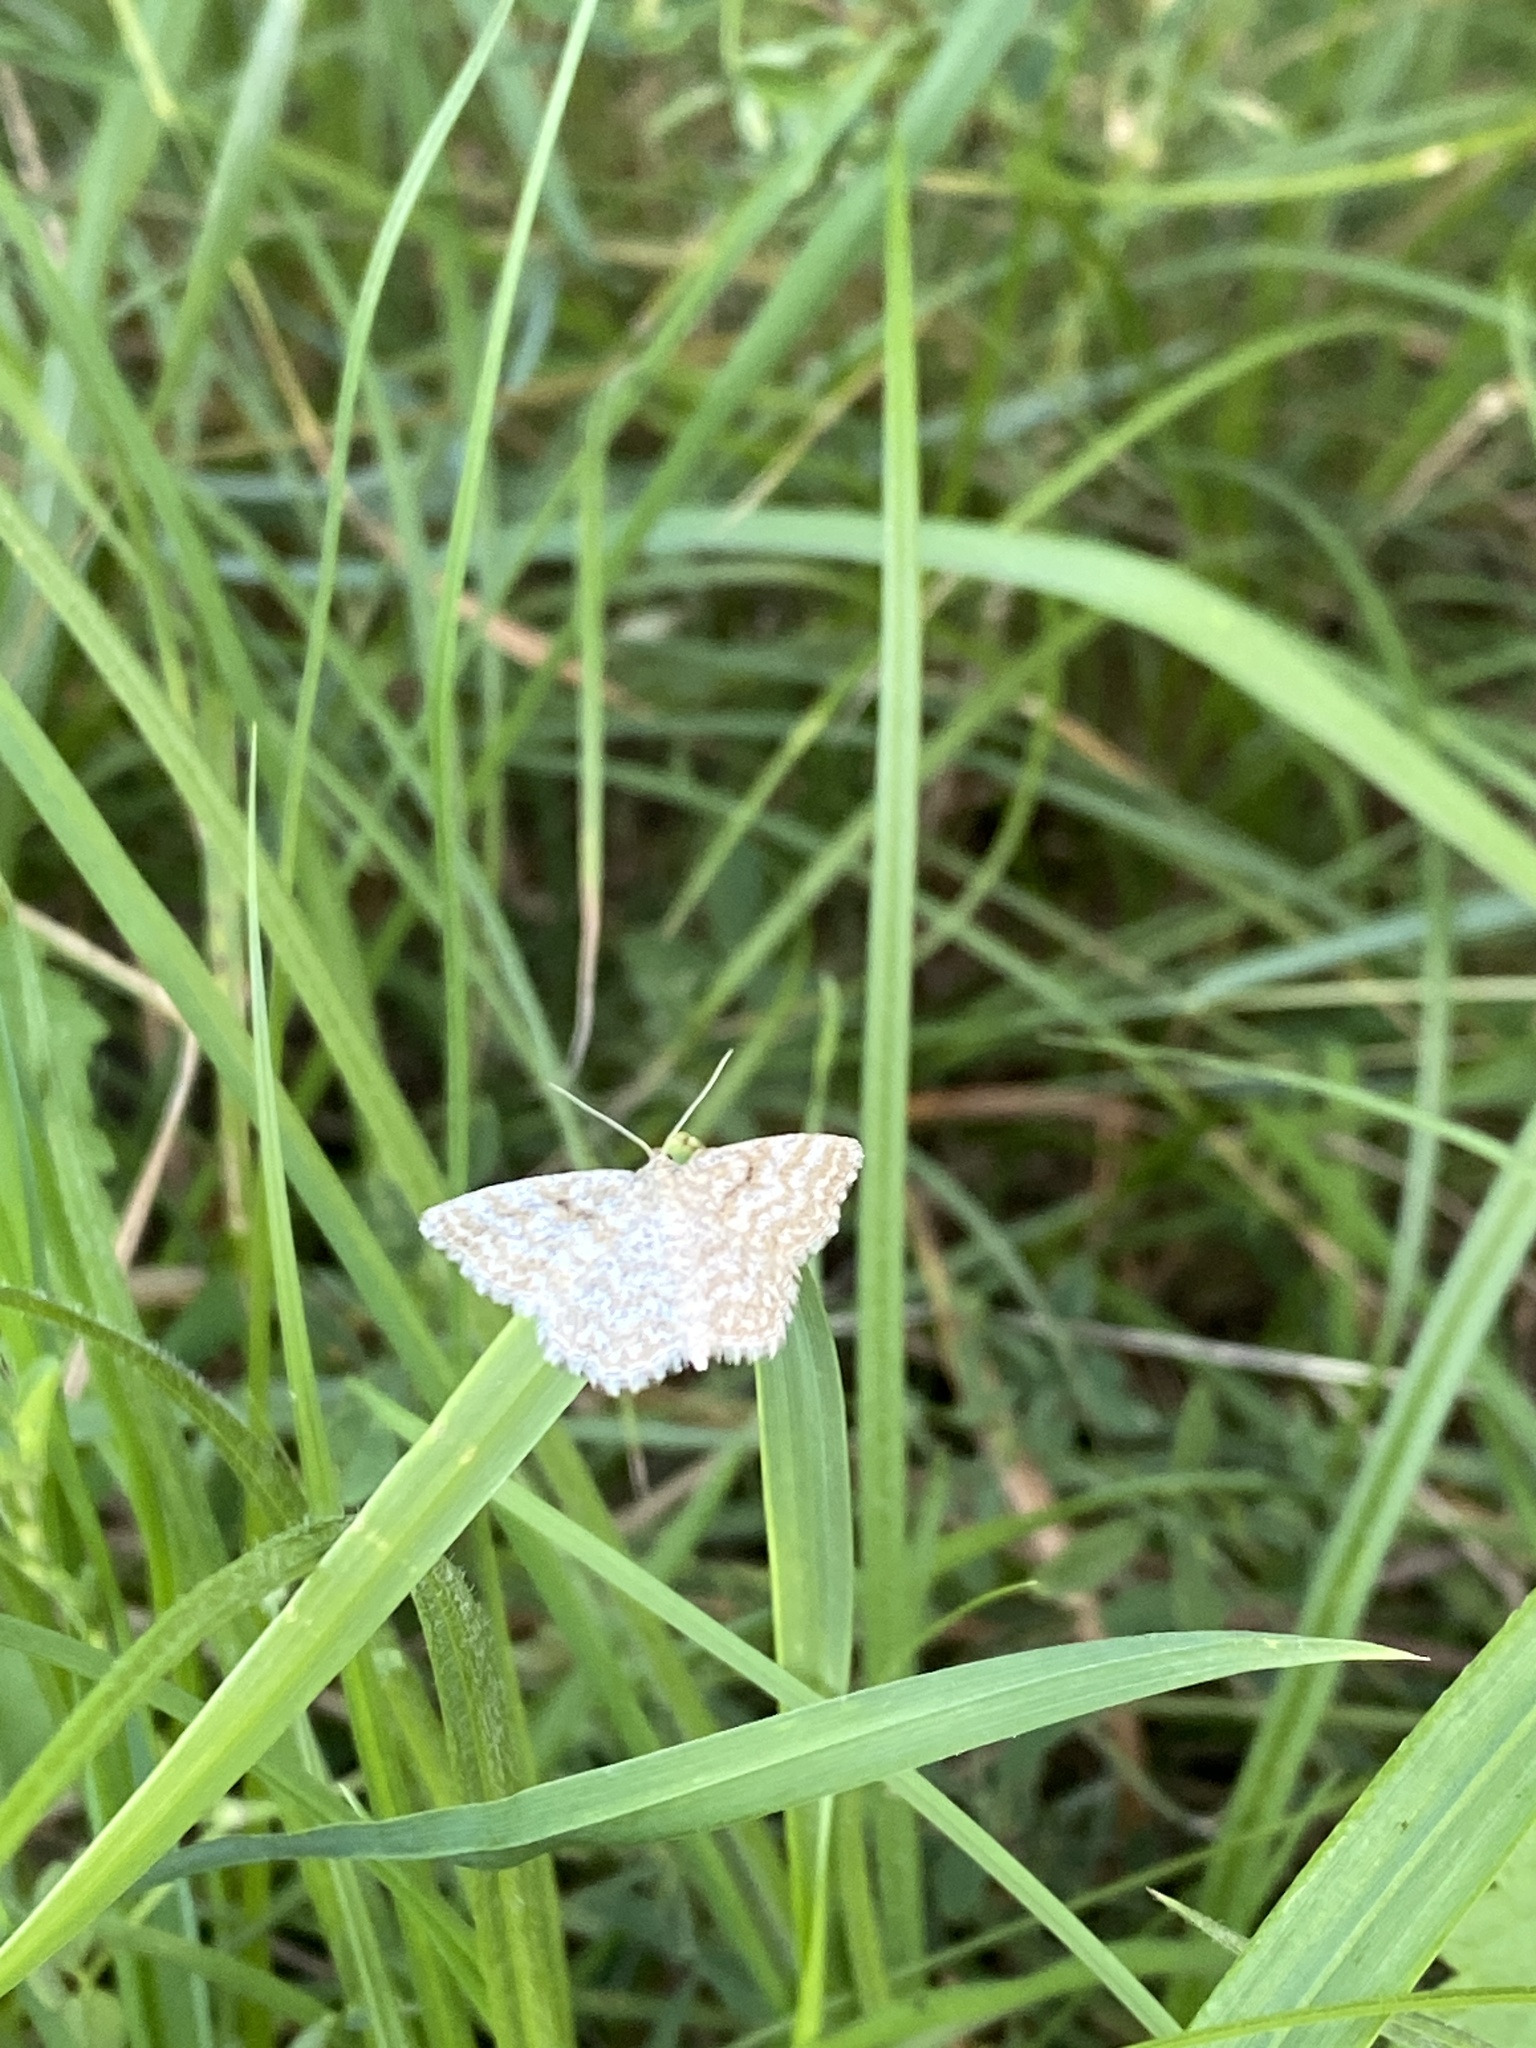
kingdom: Animalia
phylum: Arthropoda
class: Insecta
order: Lepidoptera
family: Geometridae
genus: Scopula
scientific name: Scopula immorata
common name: Lewes wave
